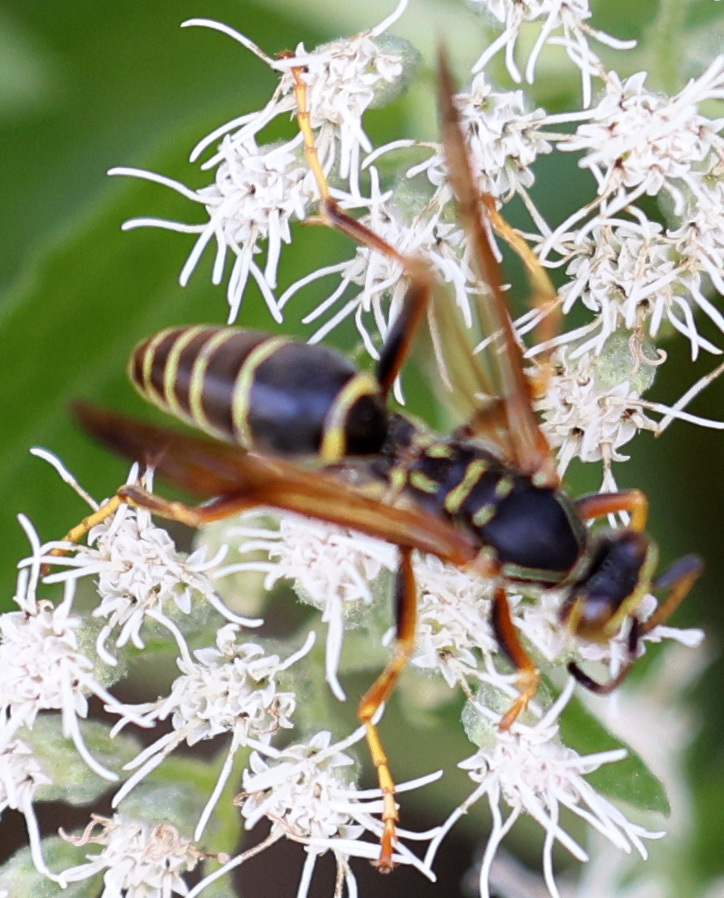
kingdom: Animalia
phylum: Arthropoda
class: Insecta
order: Hymenoptera
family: Eumenidae
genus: Polistes
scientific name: Polistes fuscatus
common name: Dark paper wasp
